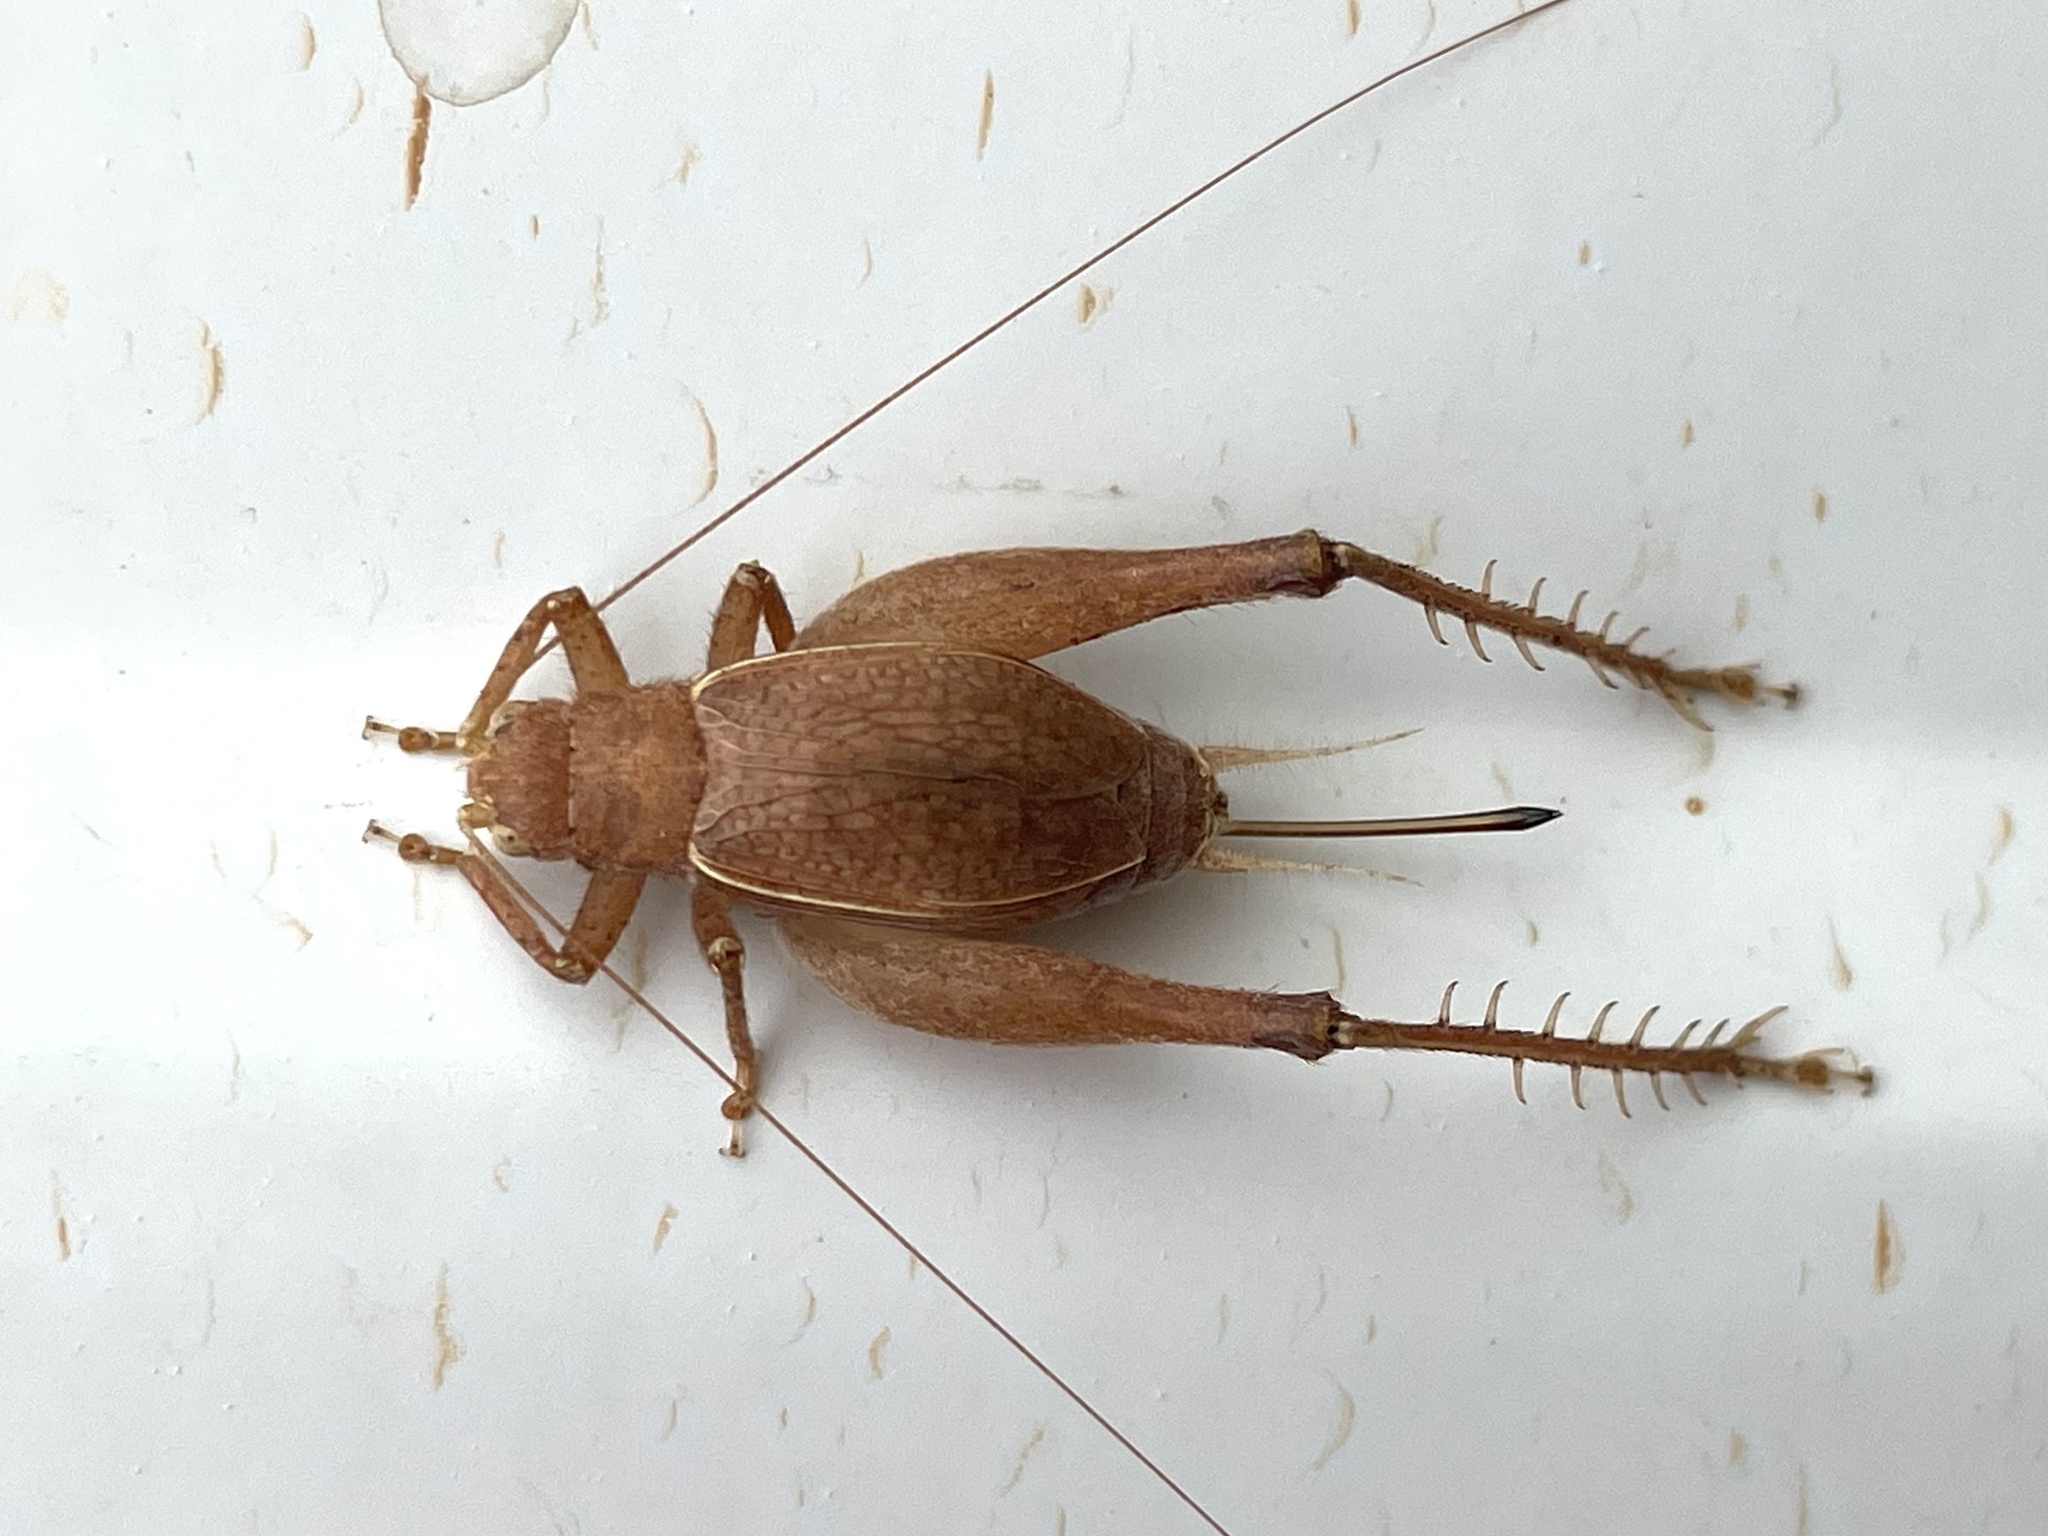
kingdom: Animalia
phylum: Arthropoda
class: Insecta
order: Orthoptera
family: Gryllidae
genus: Hapithus
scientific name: Hapithus agitator
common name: Restless bush cricket
